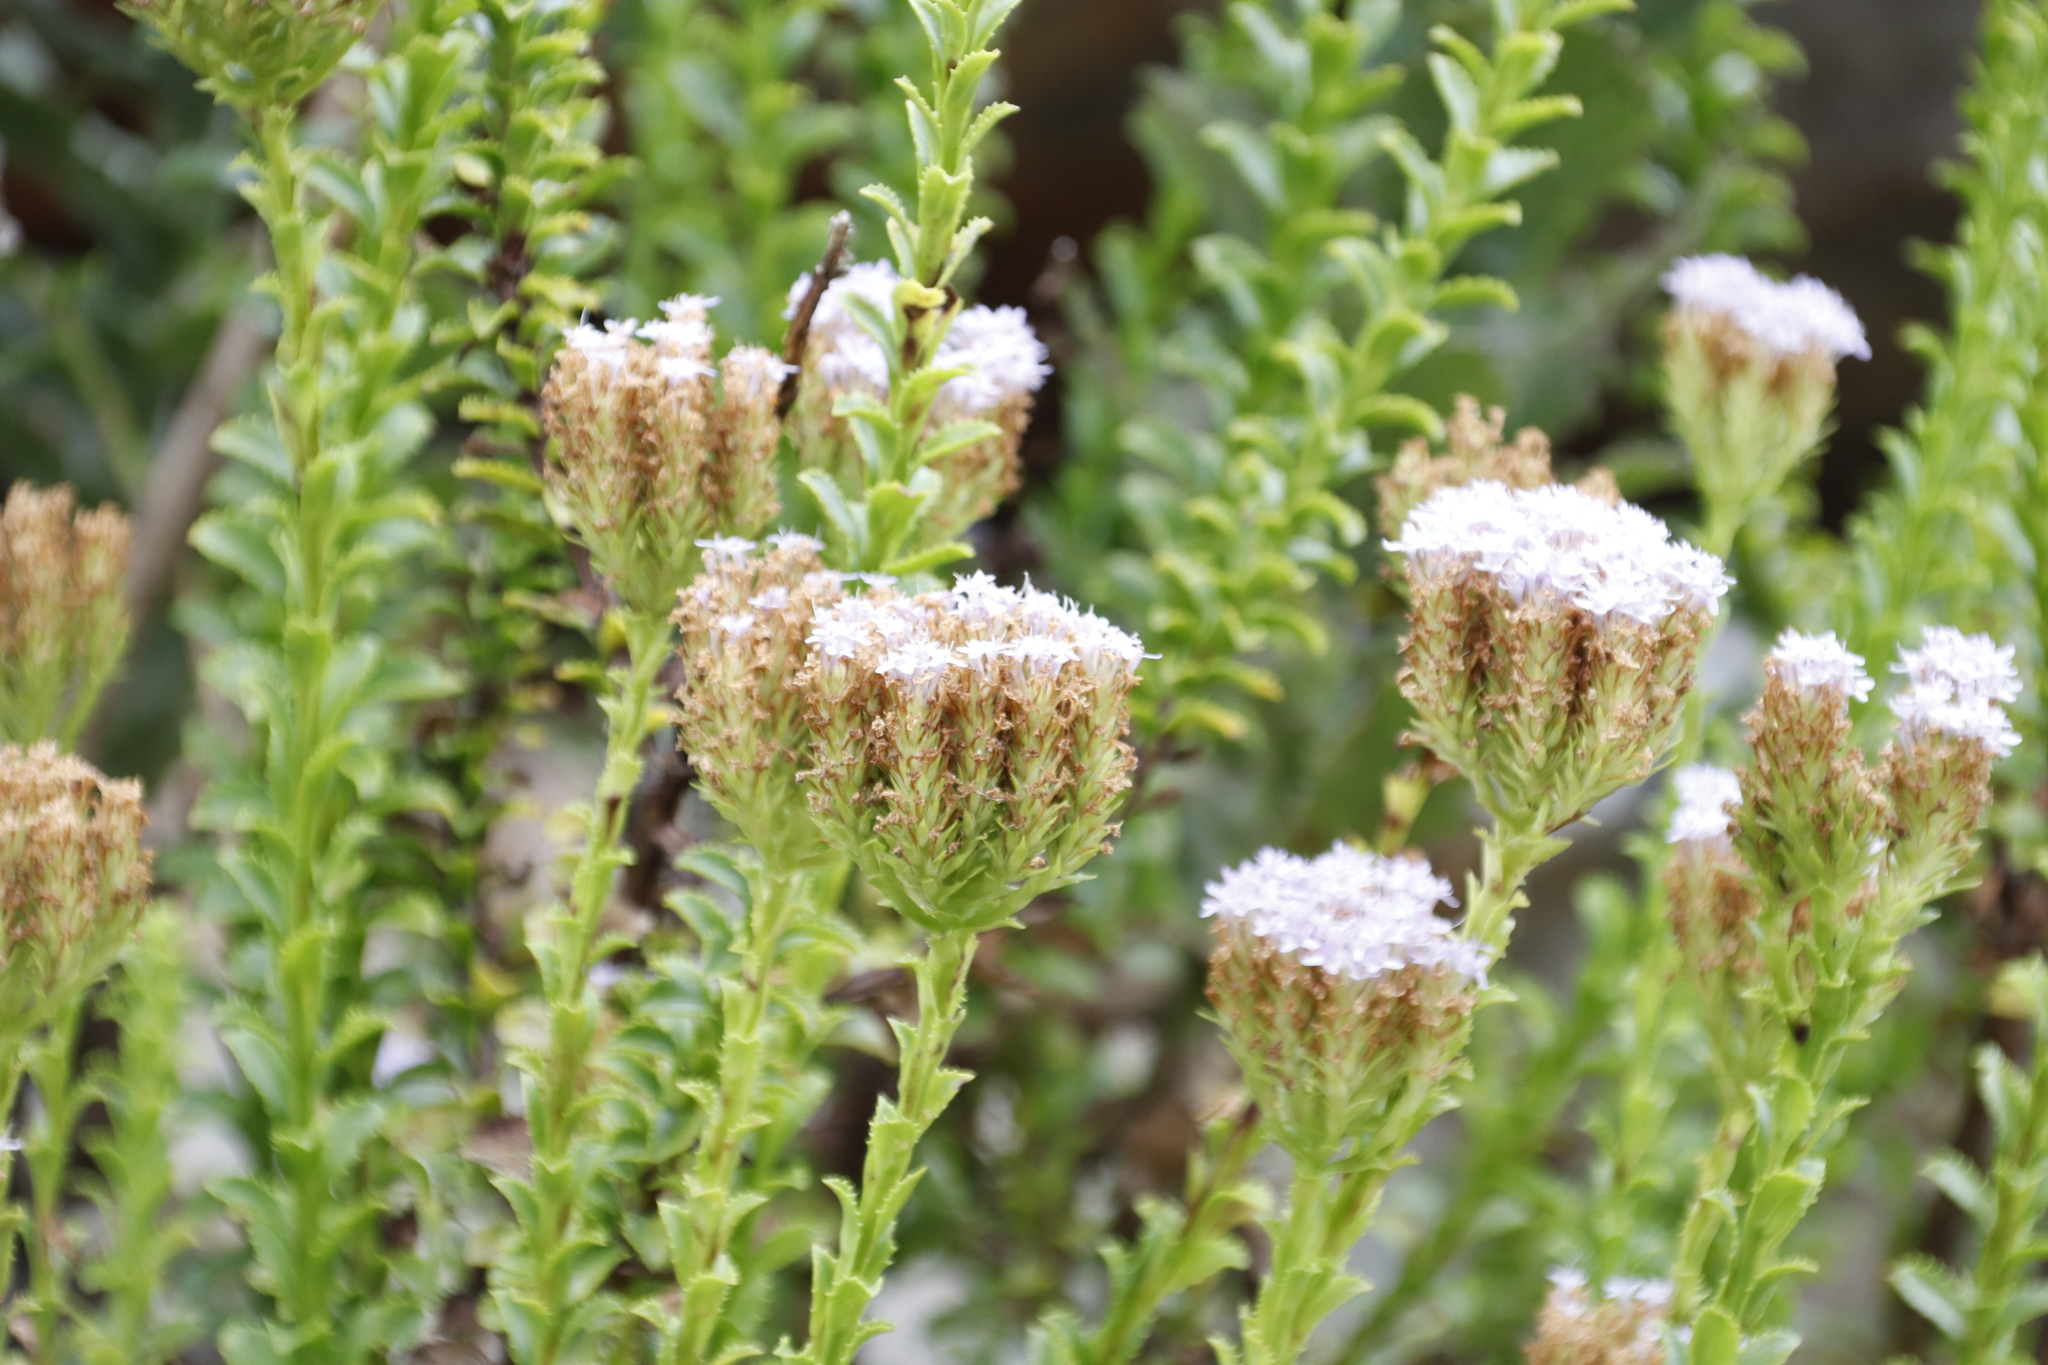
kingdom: Plantae
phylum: Tracheophyta
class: Magnoliopsida
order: Lamiales
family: Scrophulariaceae
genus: Pseudoselago
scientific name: Pseudoselago serrata
